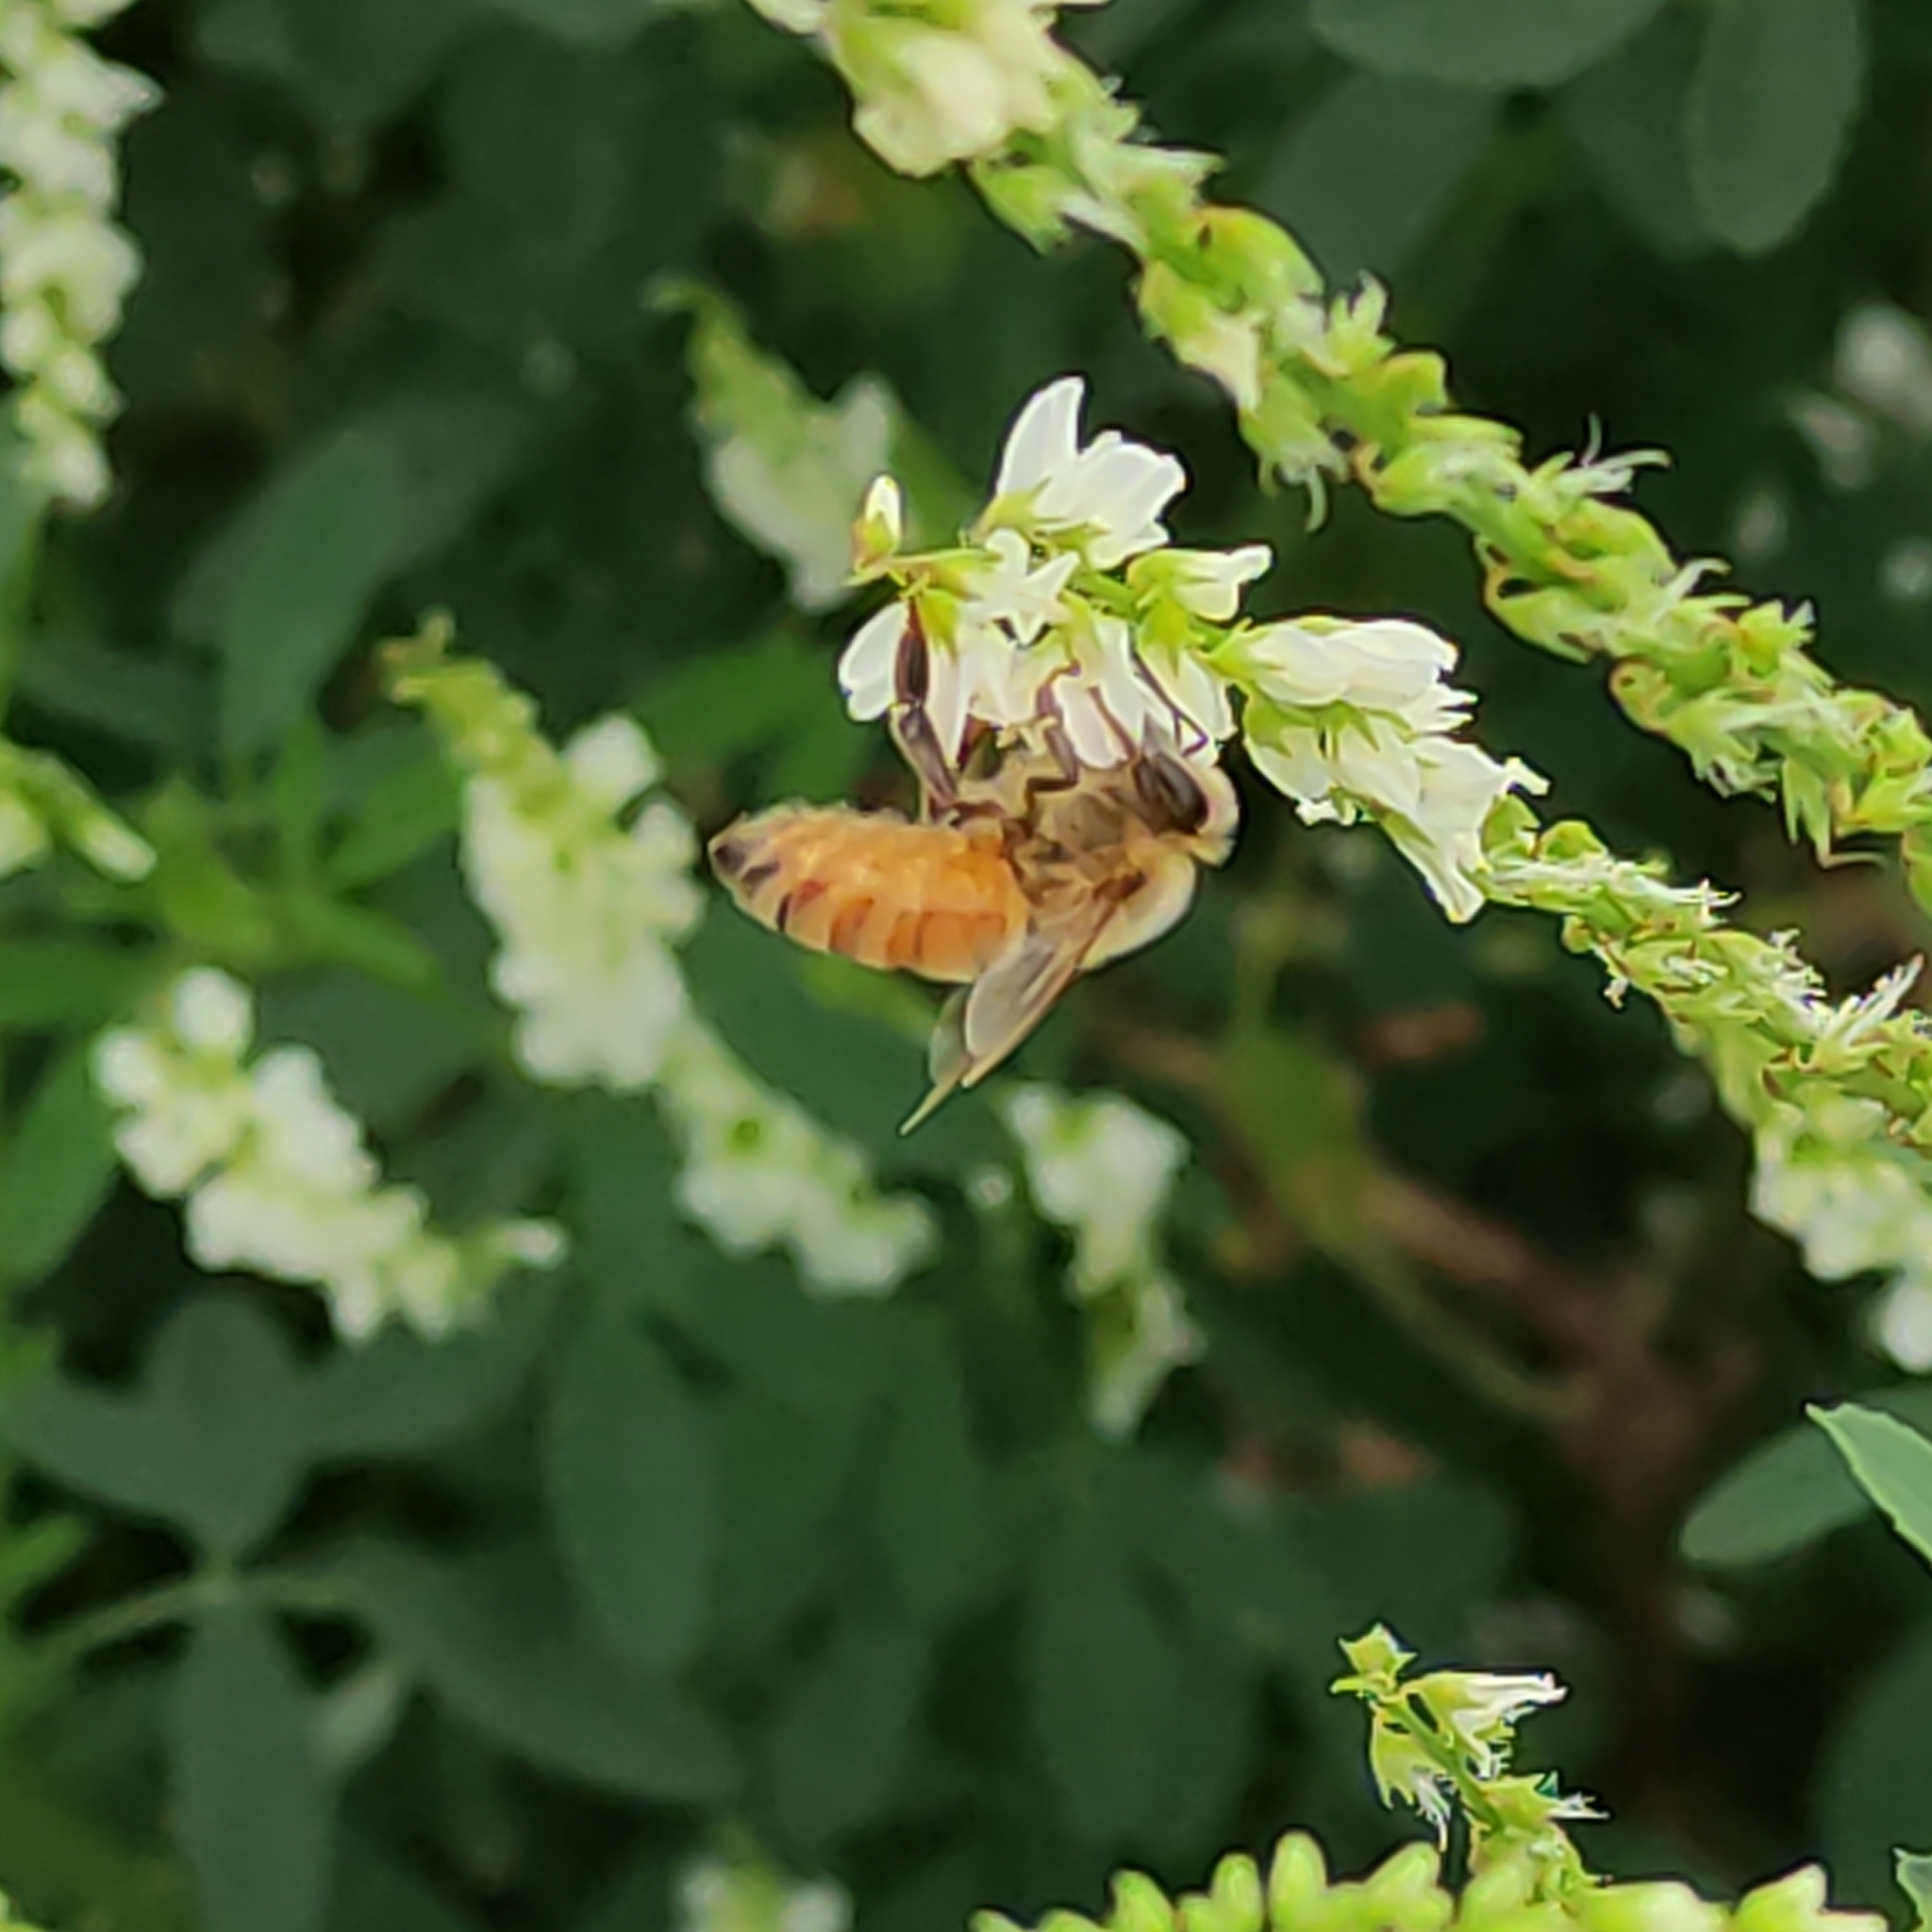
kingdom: Animalia
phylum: Arthropoda
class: Insecta
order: Hymenoptera
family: Apidae
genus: Apis
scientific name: Apis mellifera
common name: Honey bee
